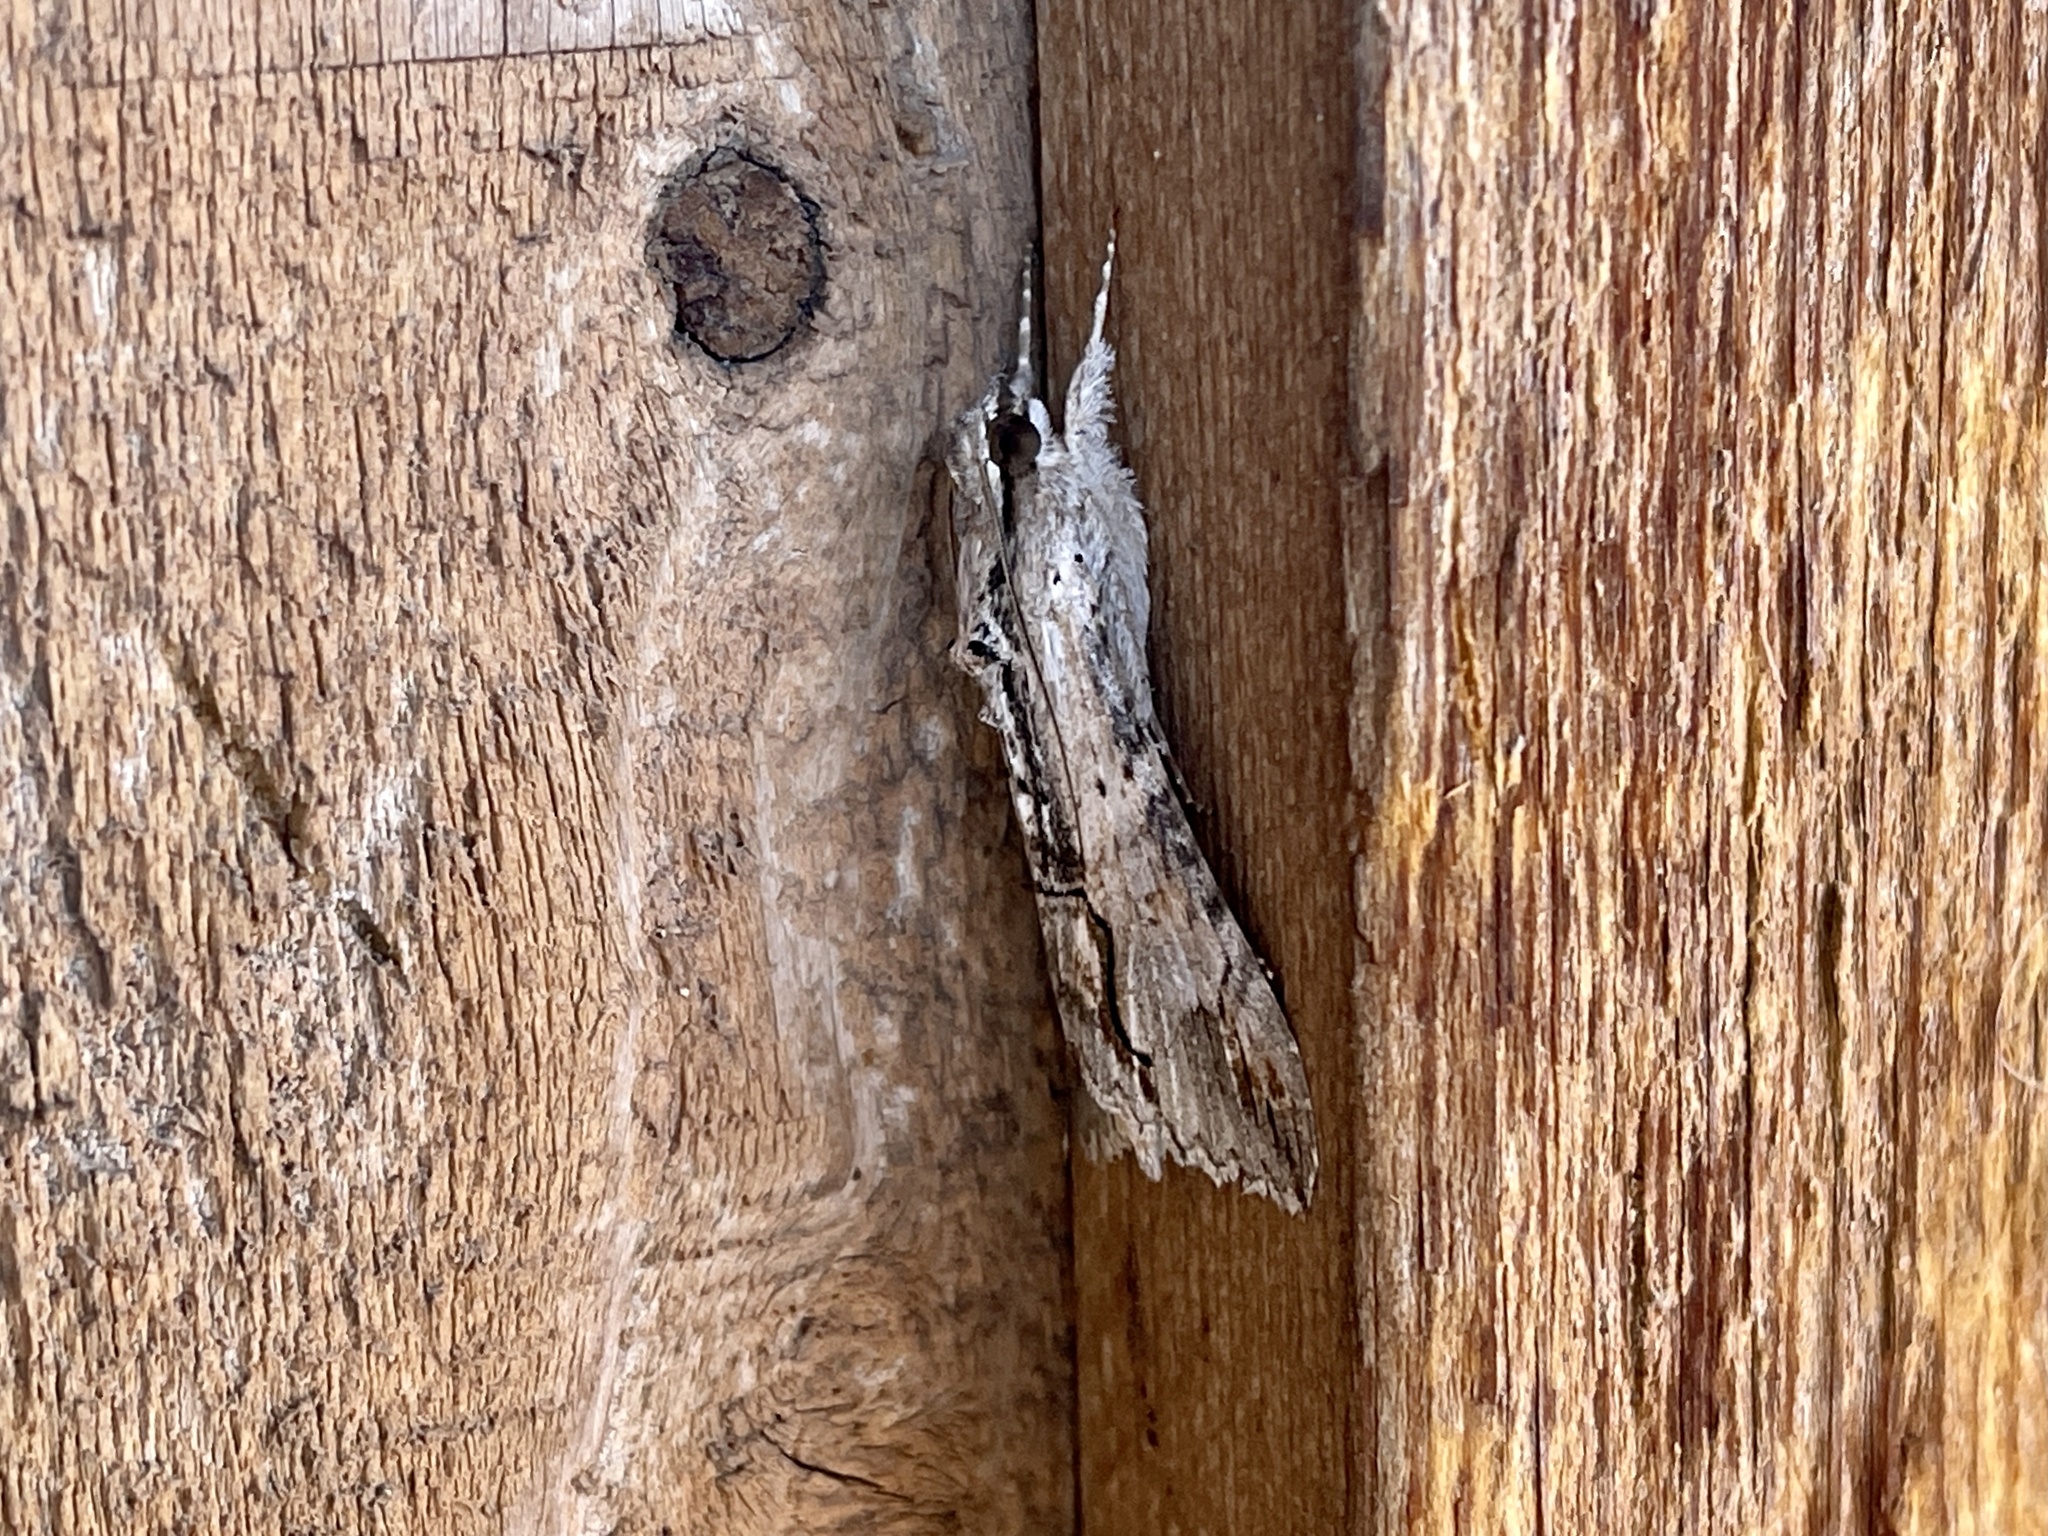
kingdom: Animalia
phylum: Arthropoda
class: Insecta
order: Lepidoptera
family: Erebidae
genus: Melipotis
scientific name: Melipotis acontioides
